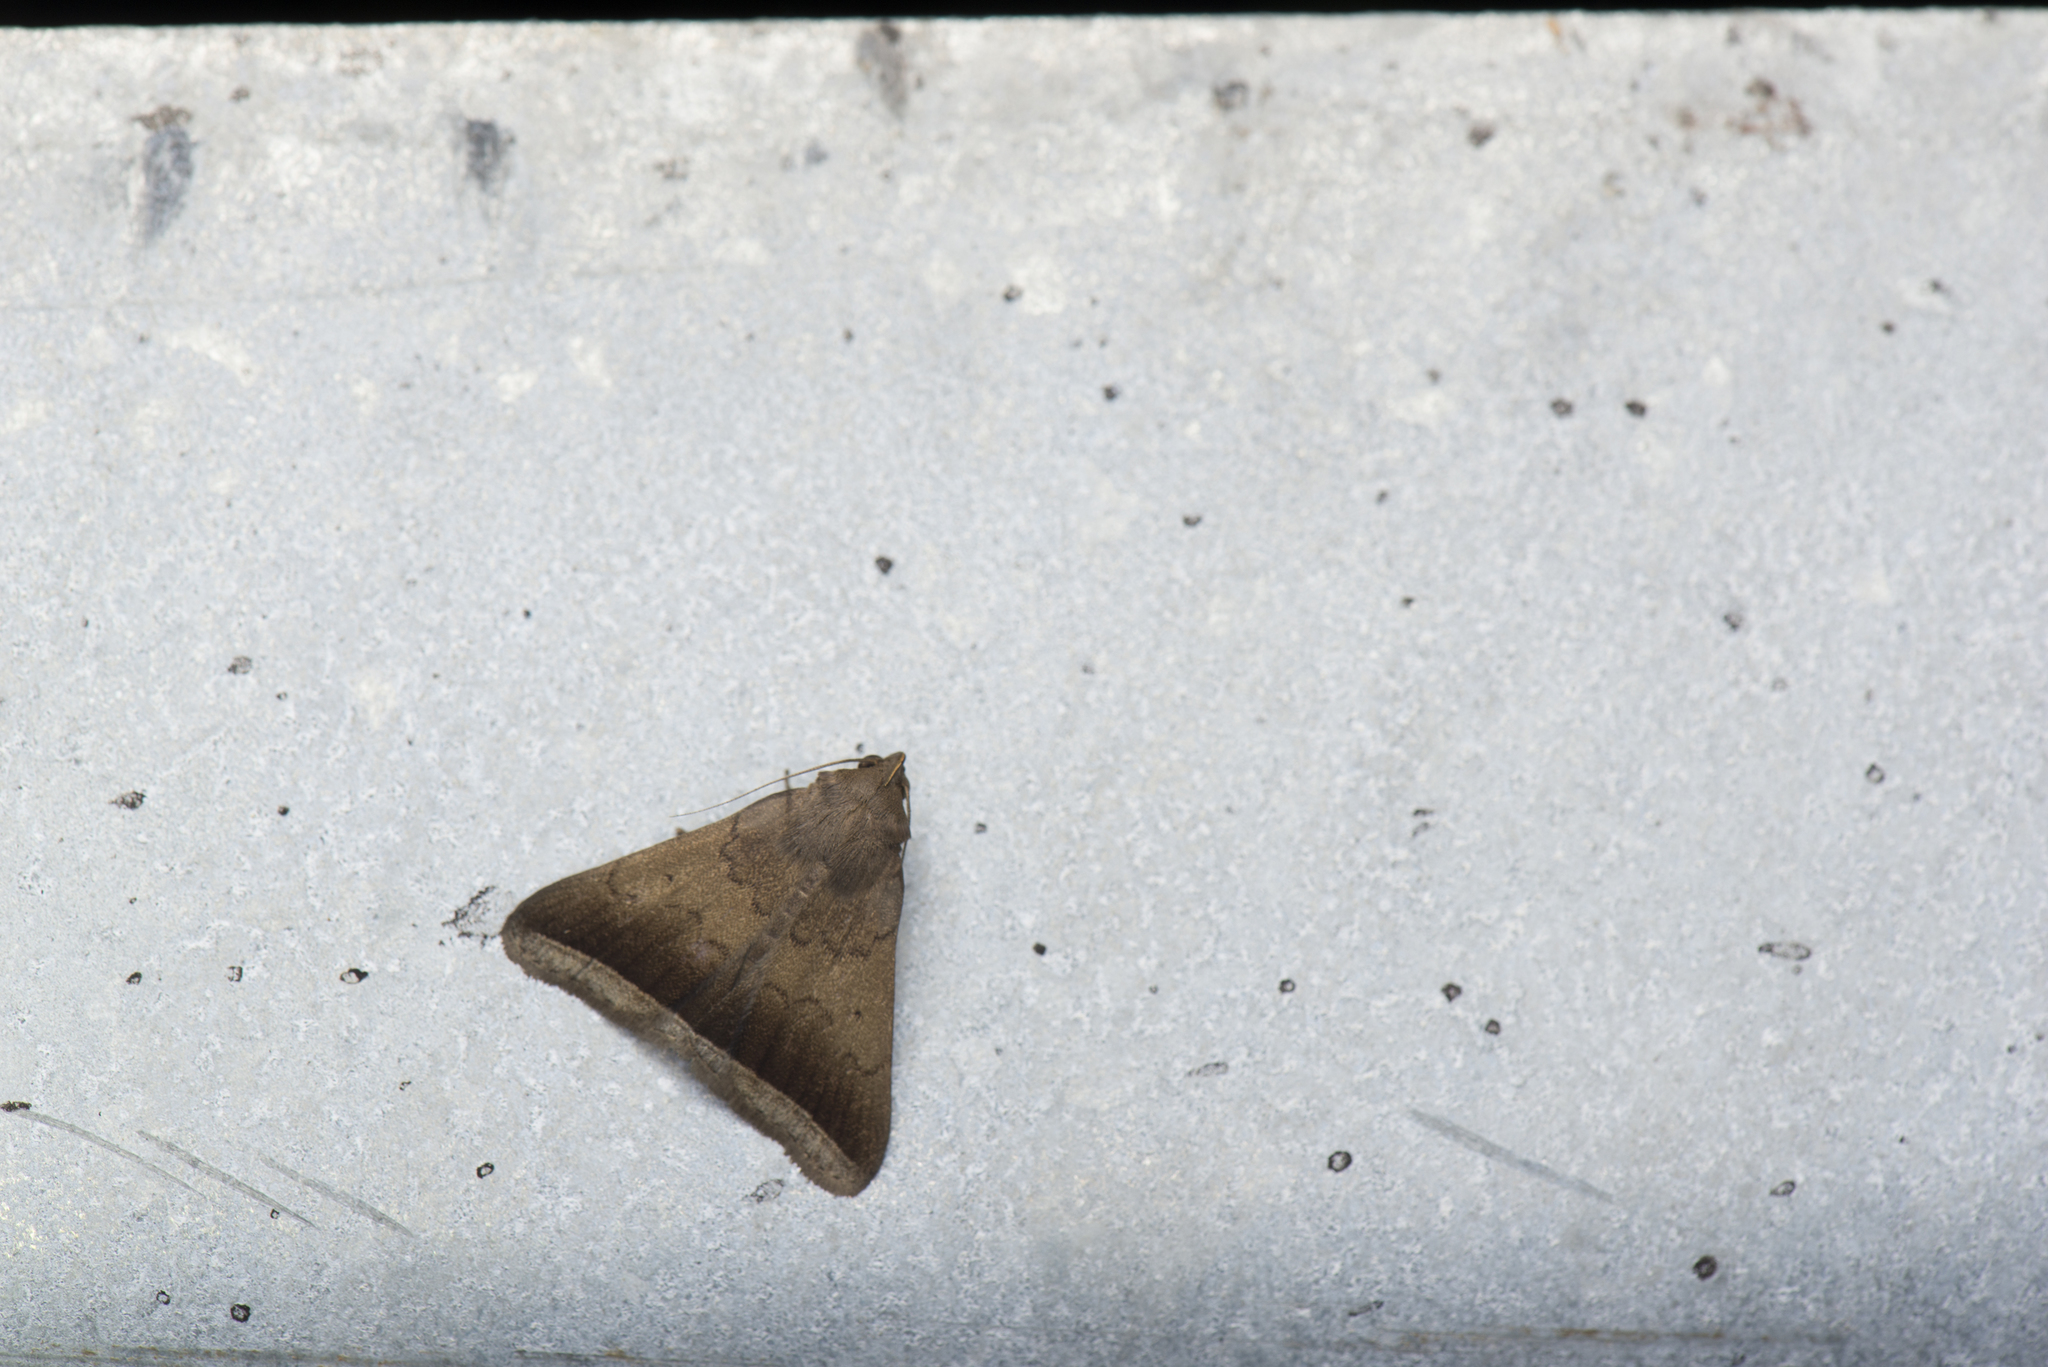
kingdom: Animalia
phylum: Arthropoda
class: Insecta
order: Lepidoptera
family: Erebidae
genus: Simplicia
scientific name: Simplicia bimarginata
